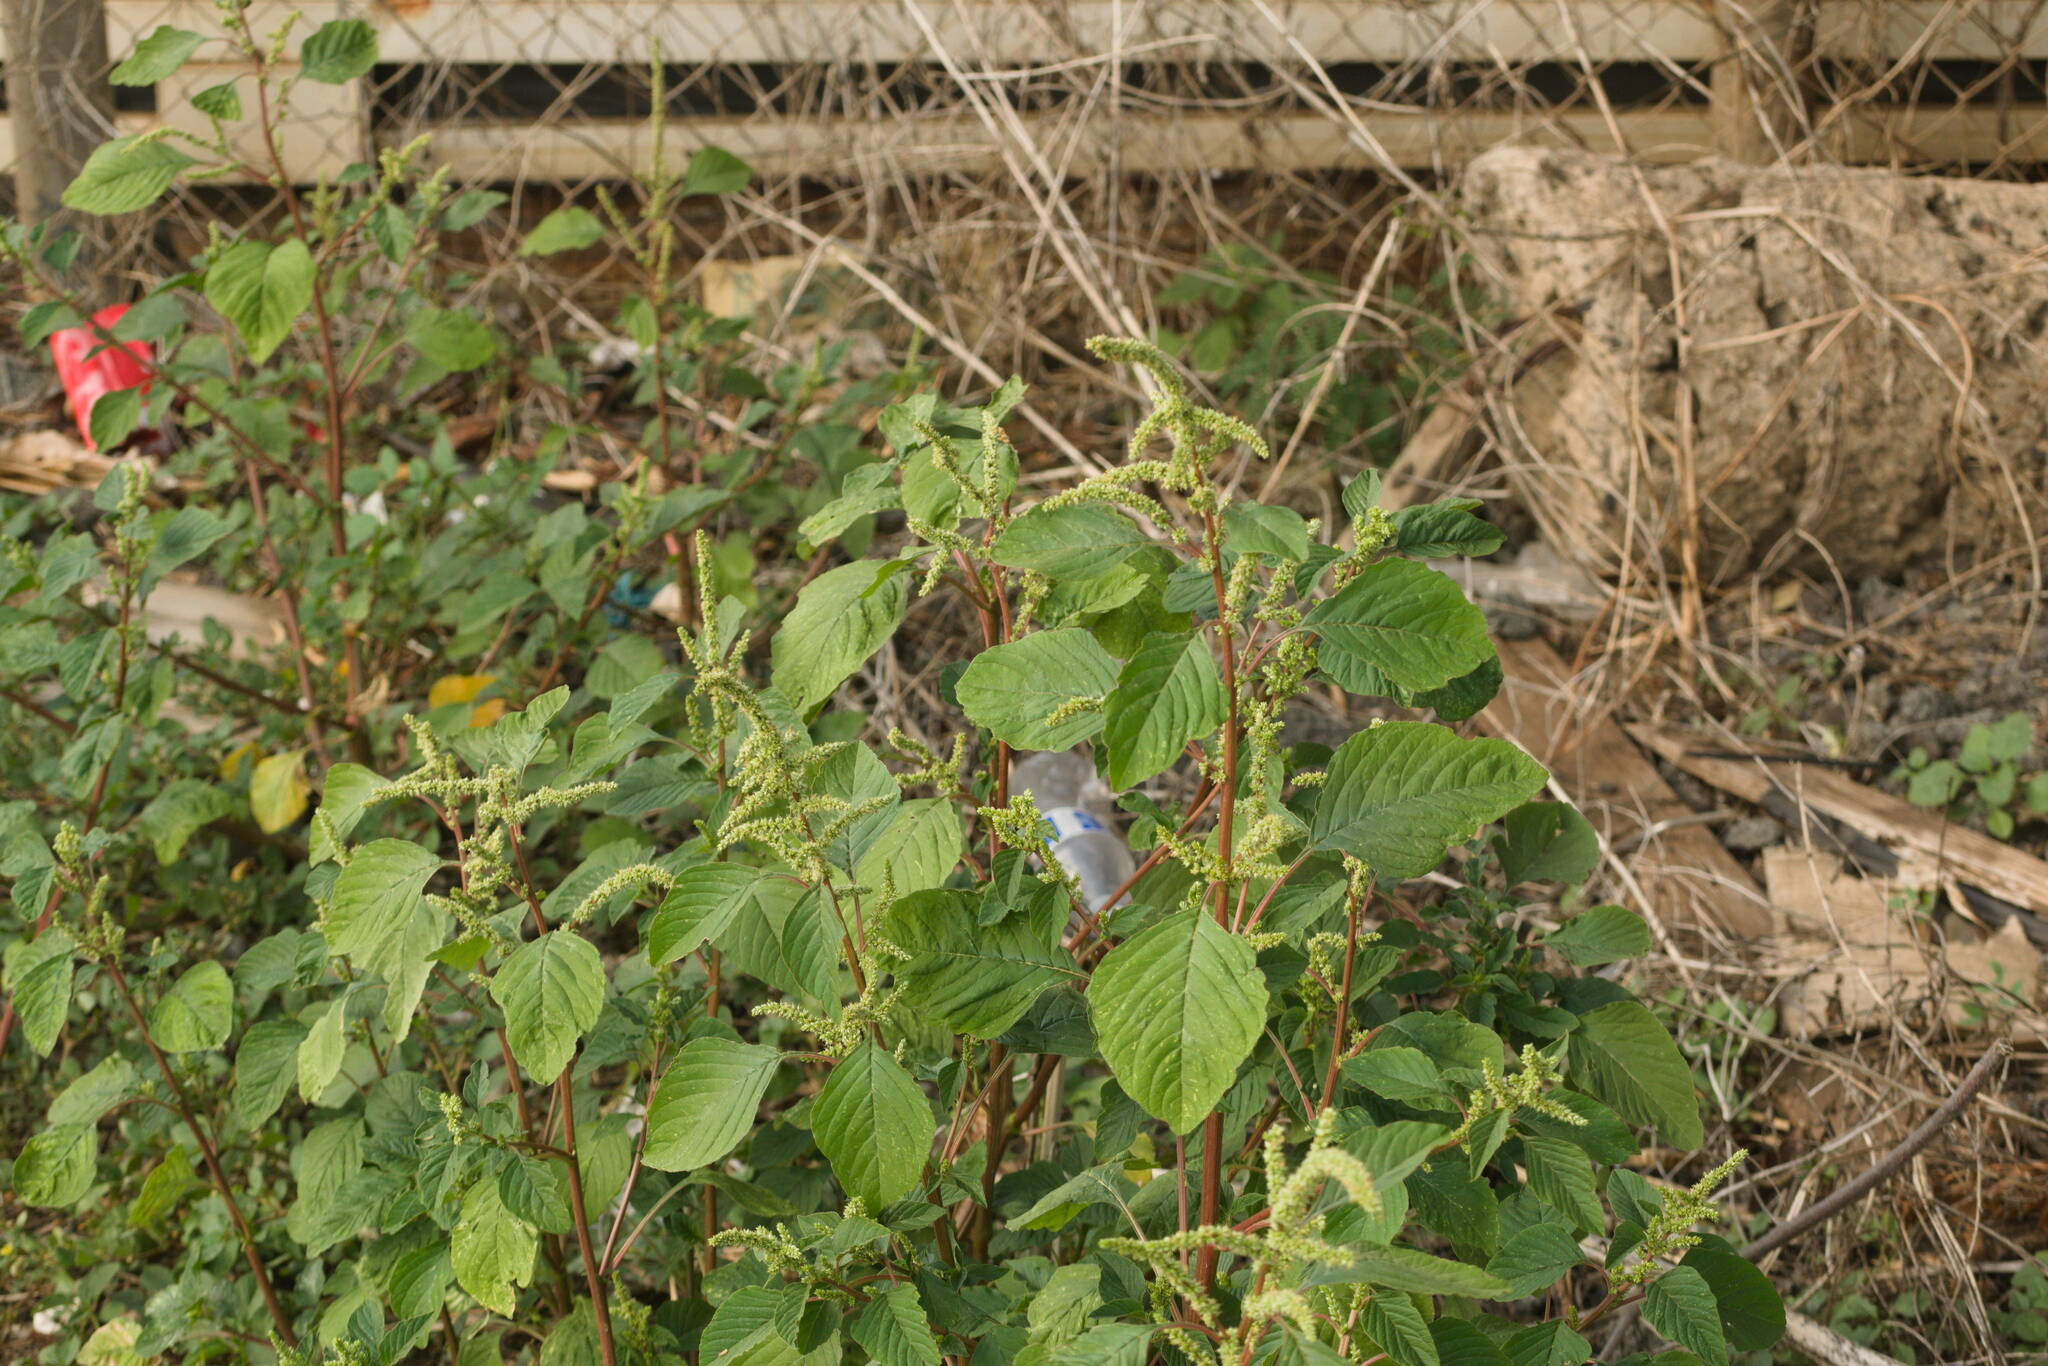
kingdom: Plantae
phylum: Tracheophyta
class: Magnoliopsida
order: Caryophyllales
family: Amaranthaceae
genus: Amaranthus
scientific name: Amaranthus retroflexus
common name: Redroot amaranth
